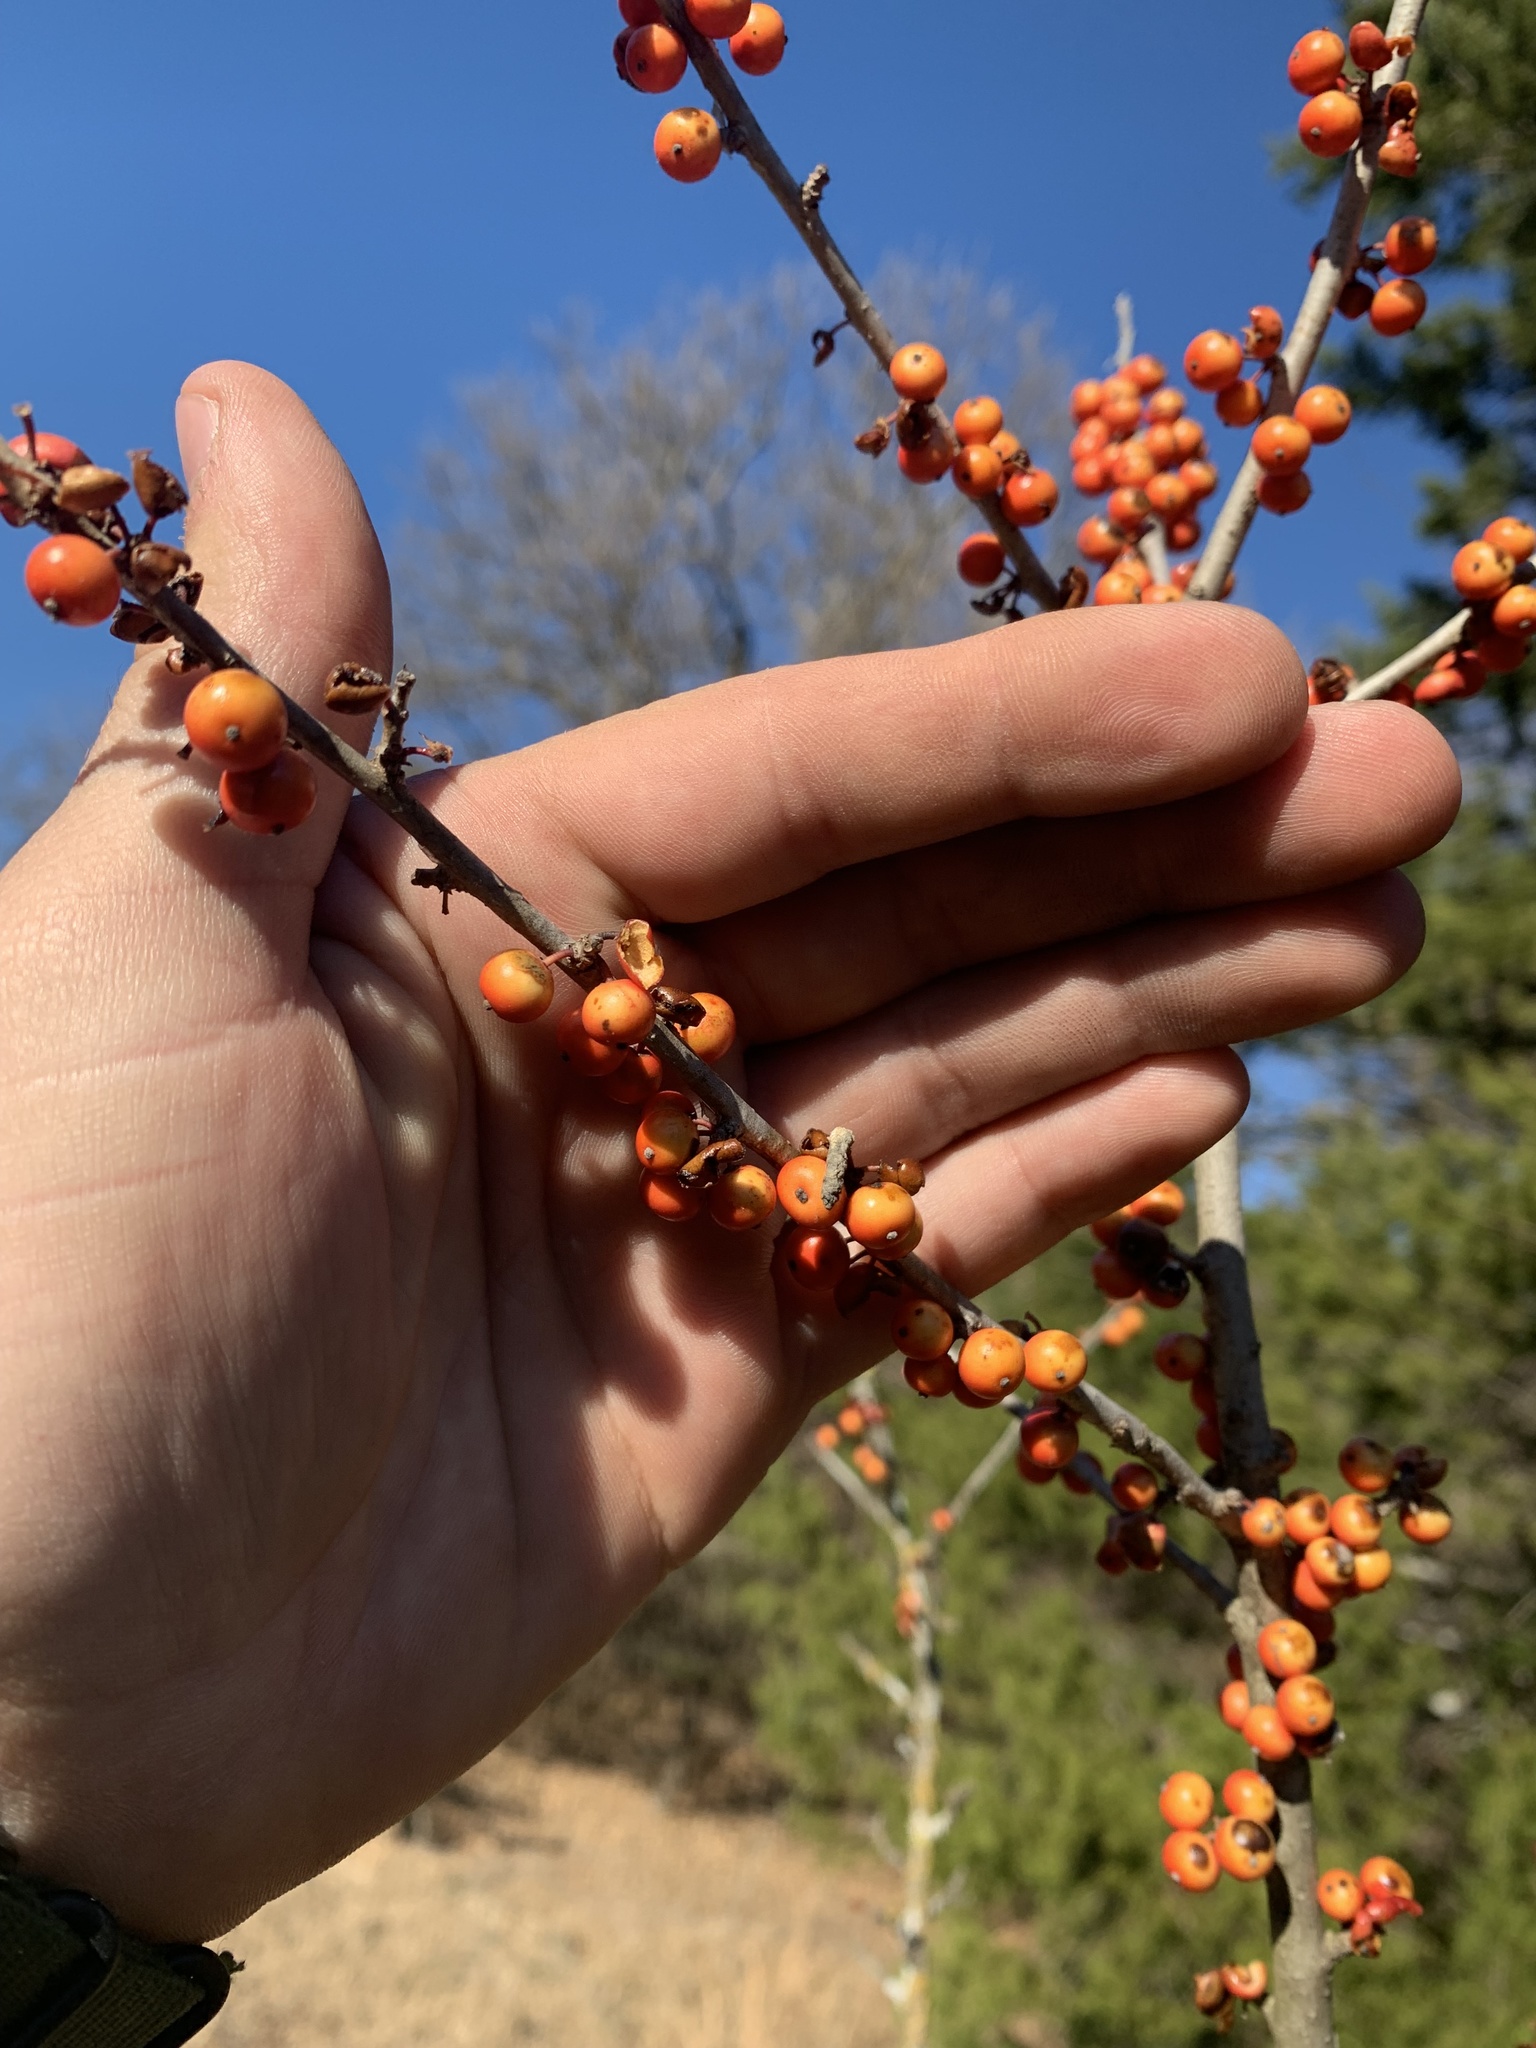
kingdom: Plantae
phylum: Tracheophyta
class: Magnoliopsida
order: Aquifoliales
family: Aquifoliaceae
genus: Ilex
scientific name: Ilex decidua
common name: Possum-haw
